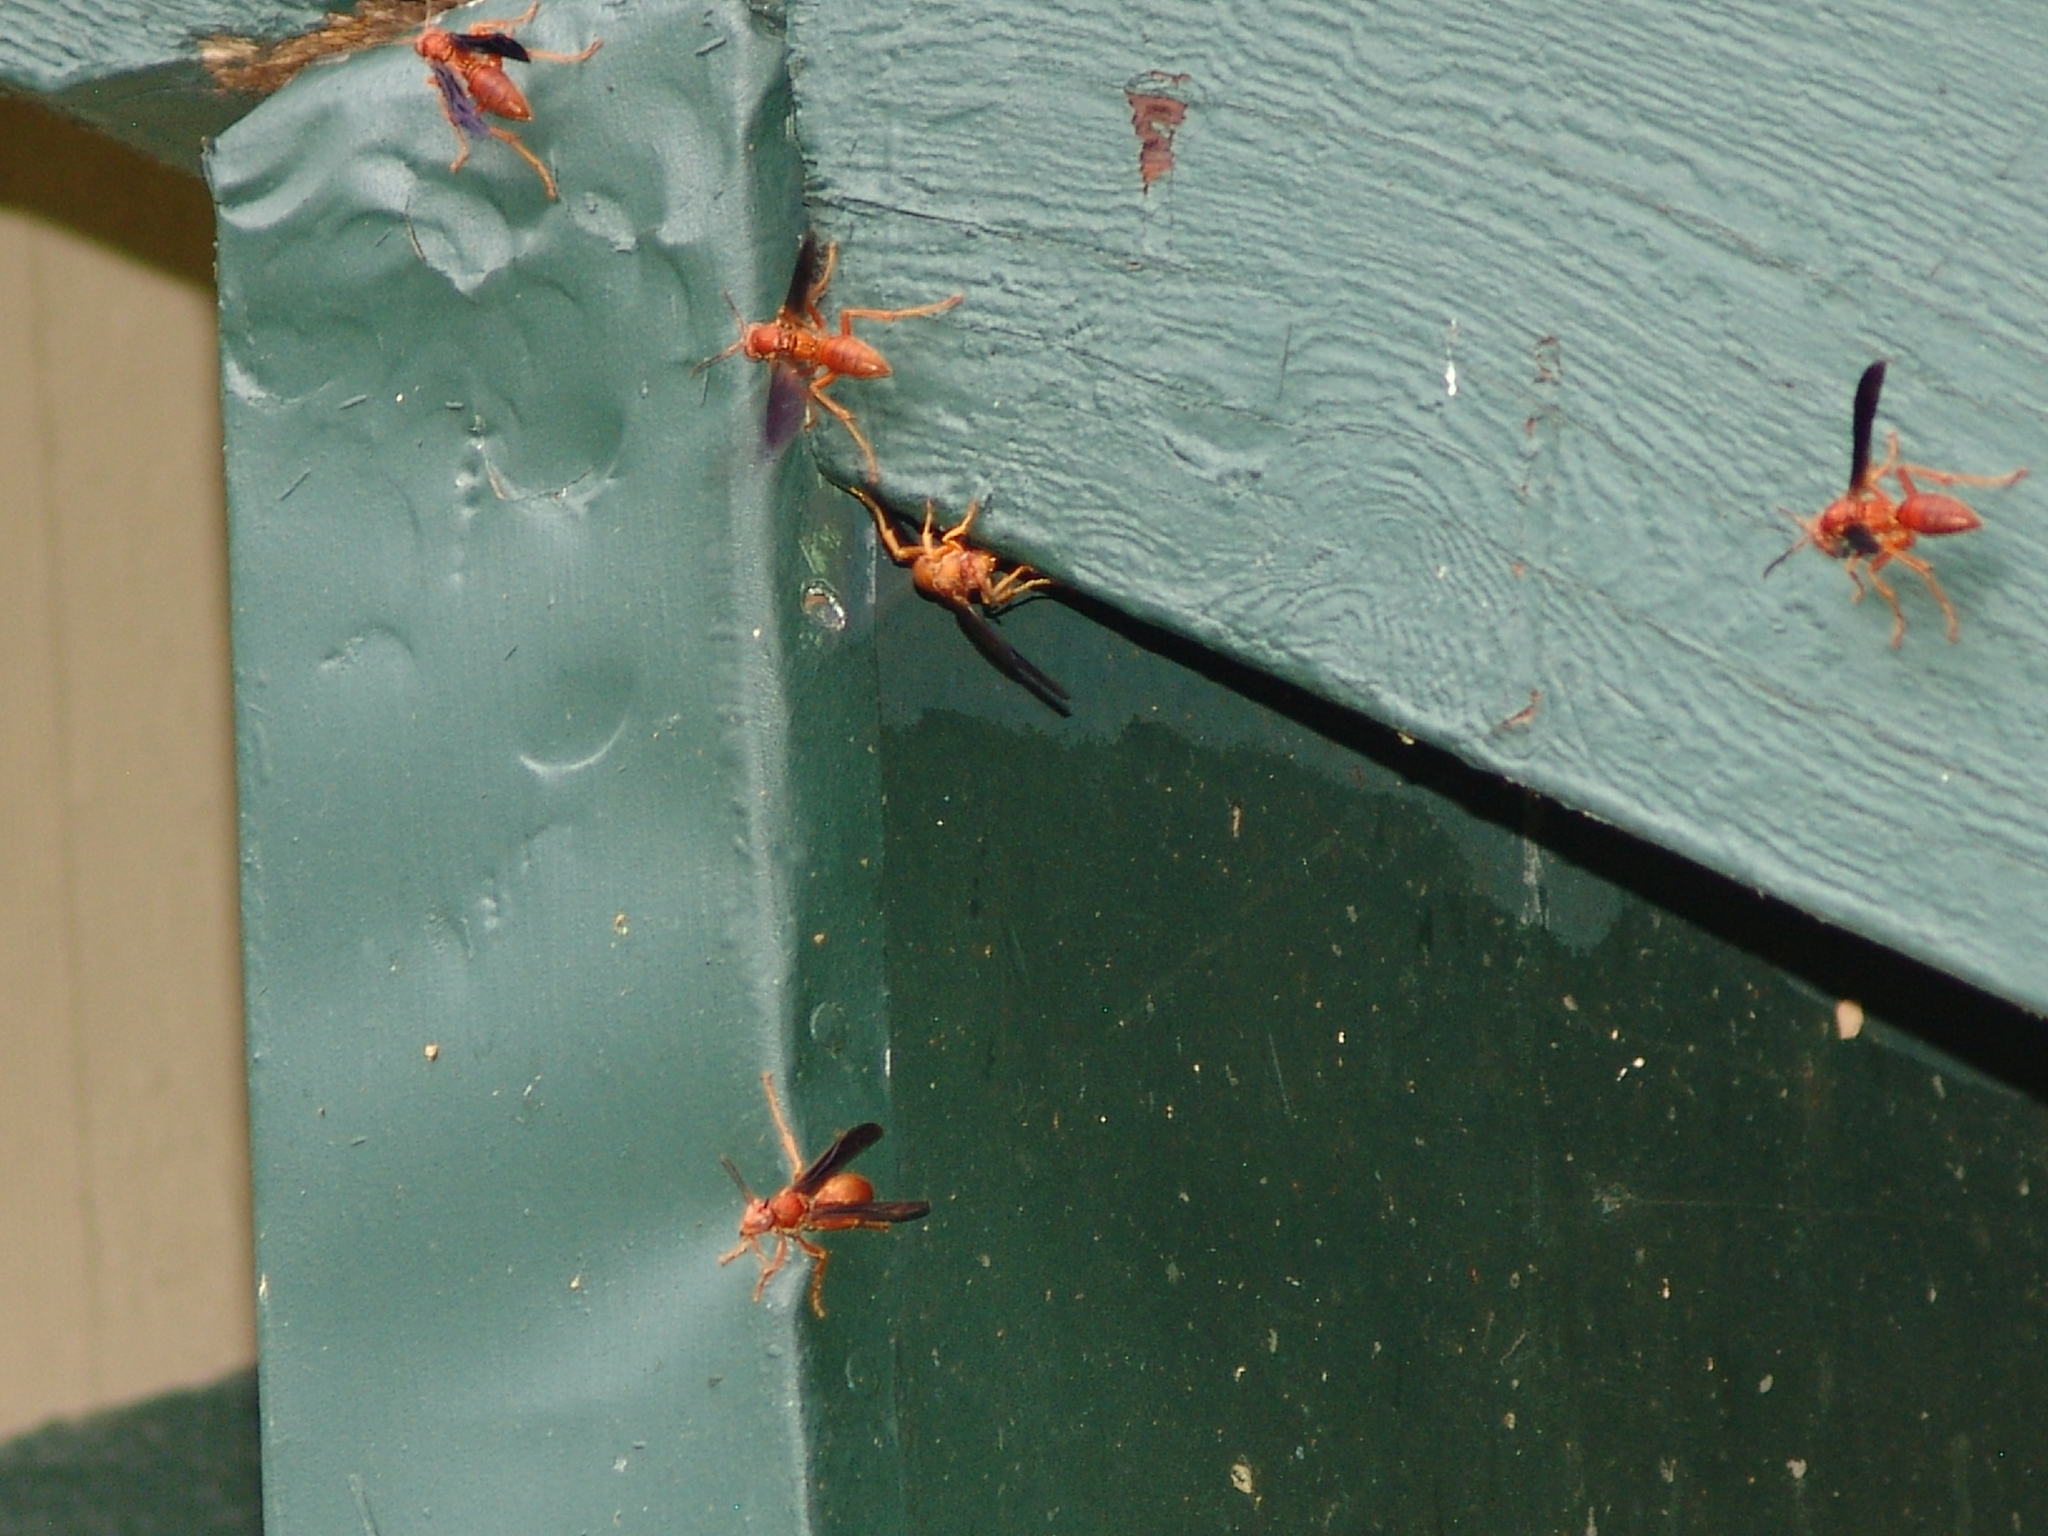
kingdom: Animalia
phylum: Arthropoda
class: Insecta
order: Hymenoptera
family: Eumenidae
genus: Polistes
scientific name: Polistes
